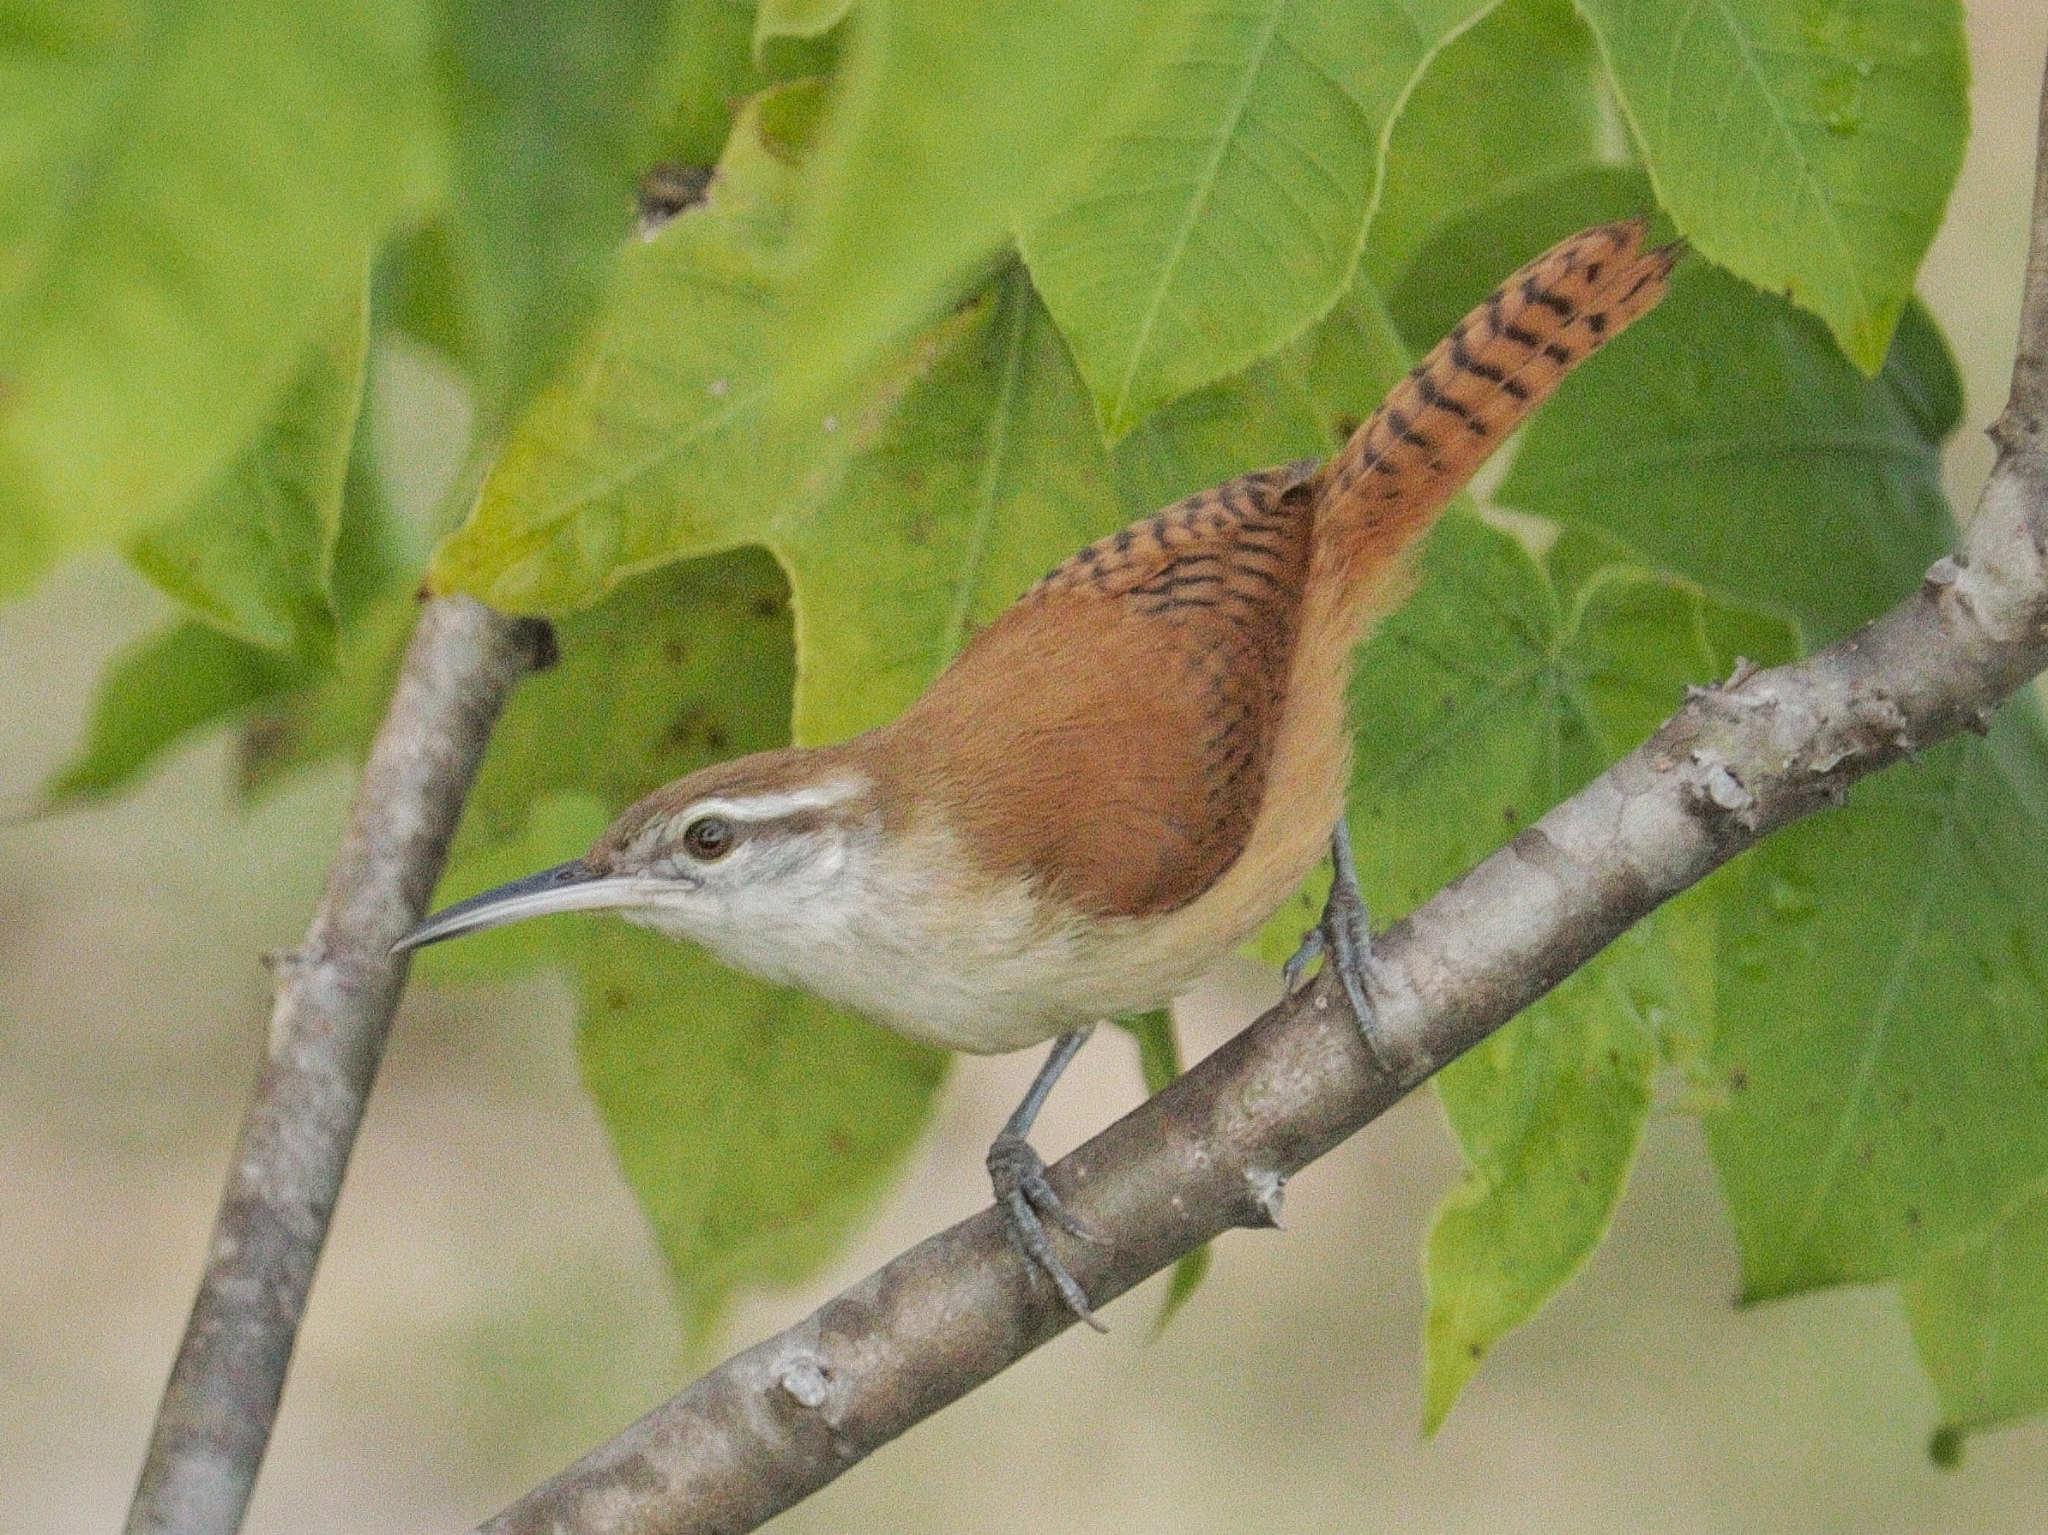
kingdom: Animalia
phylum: Chordata
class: Aves
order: Passeriformes
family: Troglodytidae
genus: Cantorchilus
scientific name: Cantorchilus longirostris
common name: Long-billed wren
